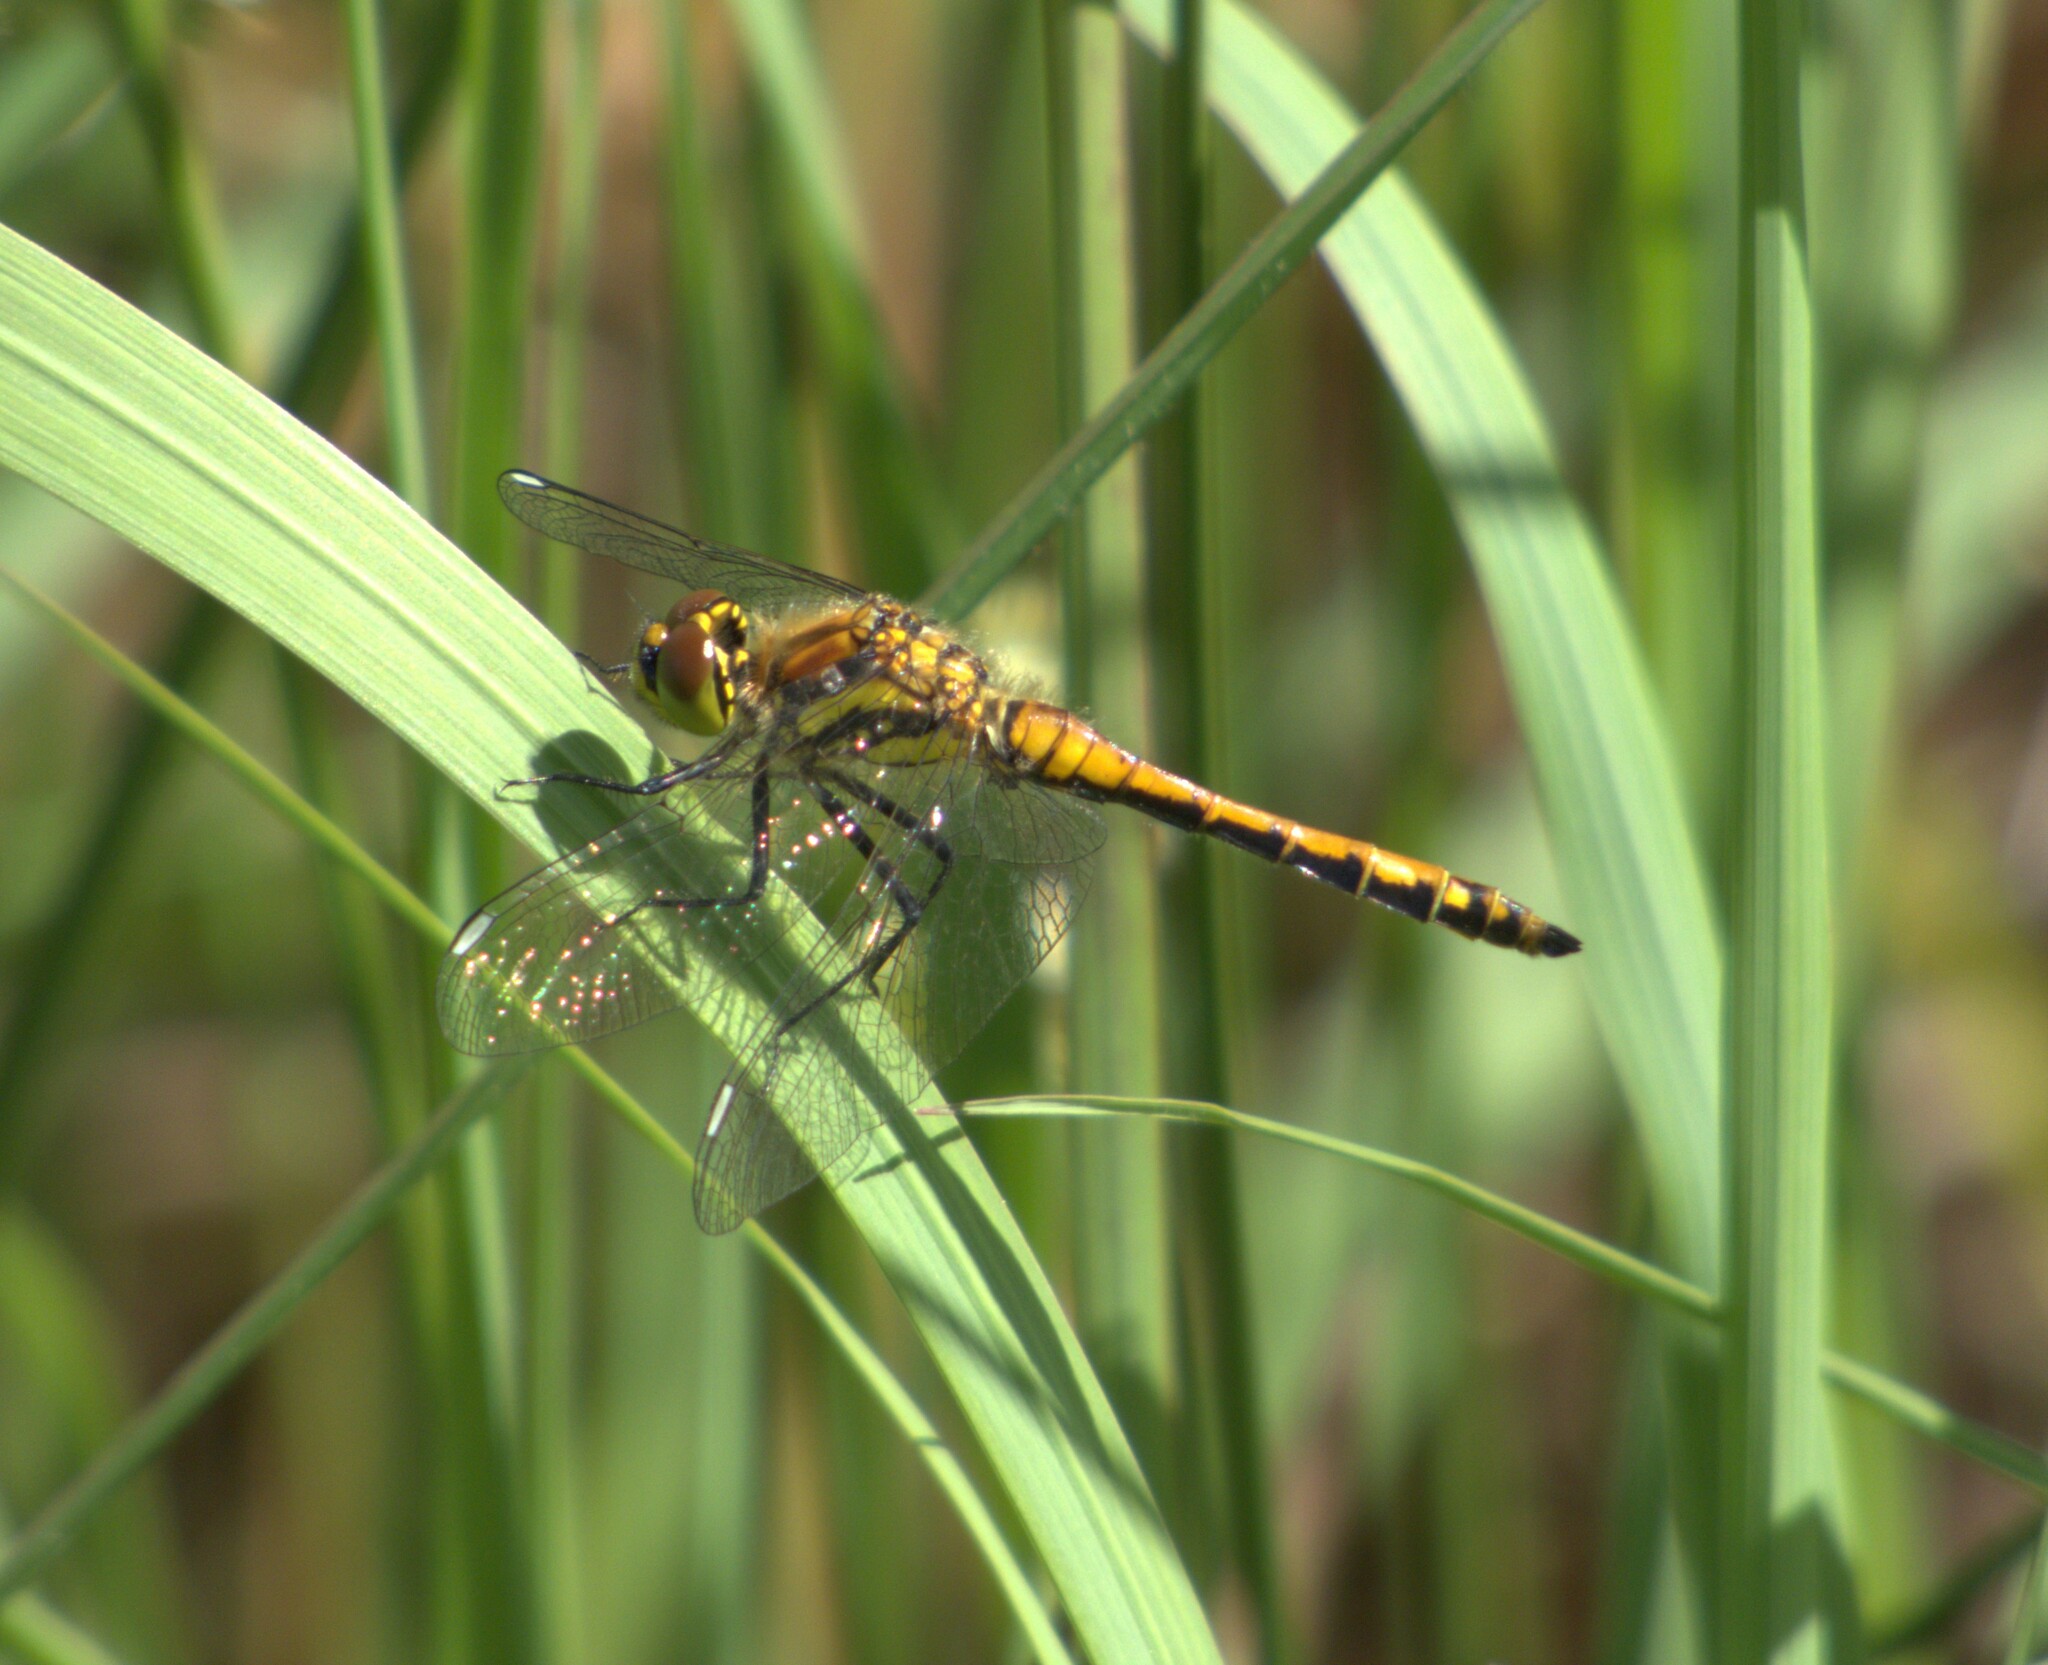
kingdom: Animalia
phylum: Arthropoda
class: Insecta
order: Odonata
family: Libellulidae
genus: Sympetrum
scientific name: Sympetrum danae
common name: Black darter
